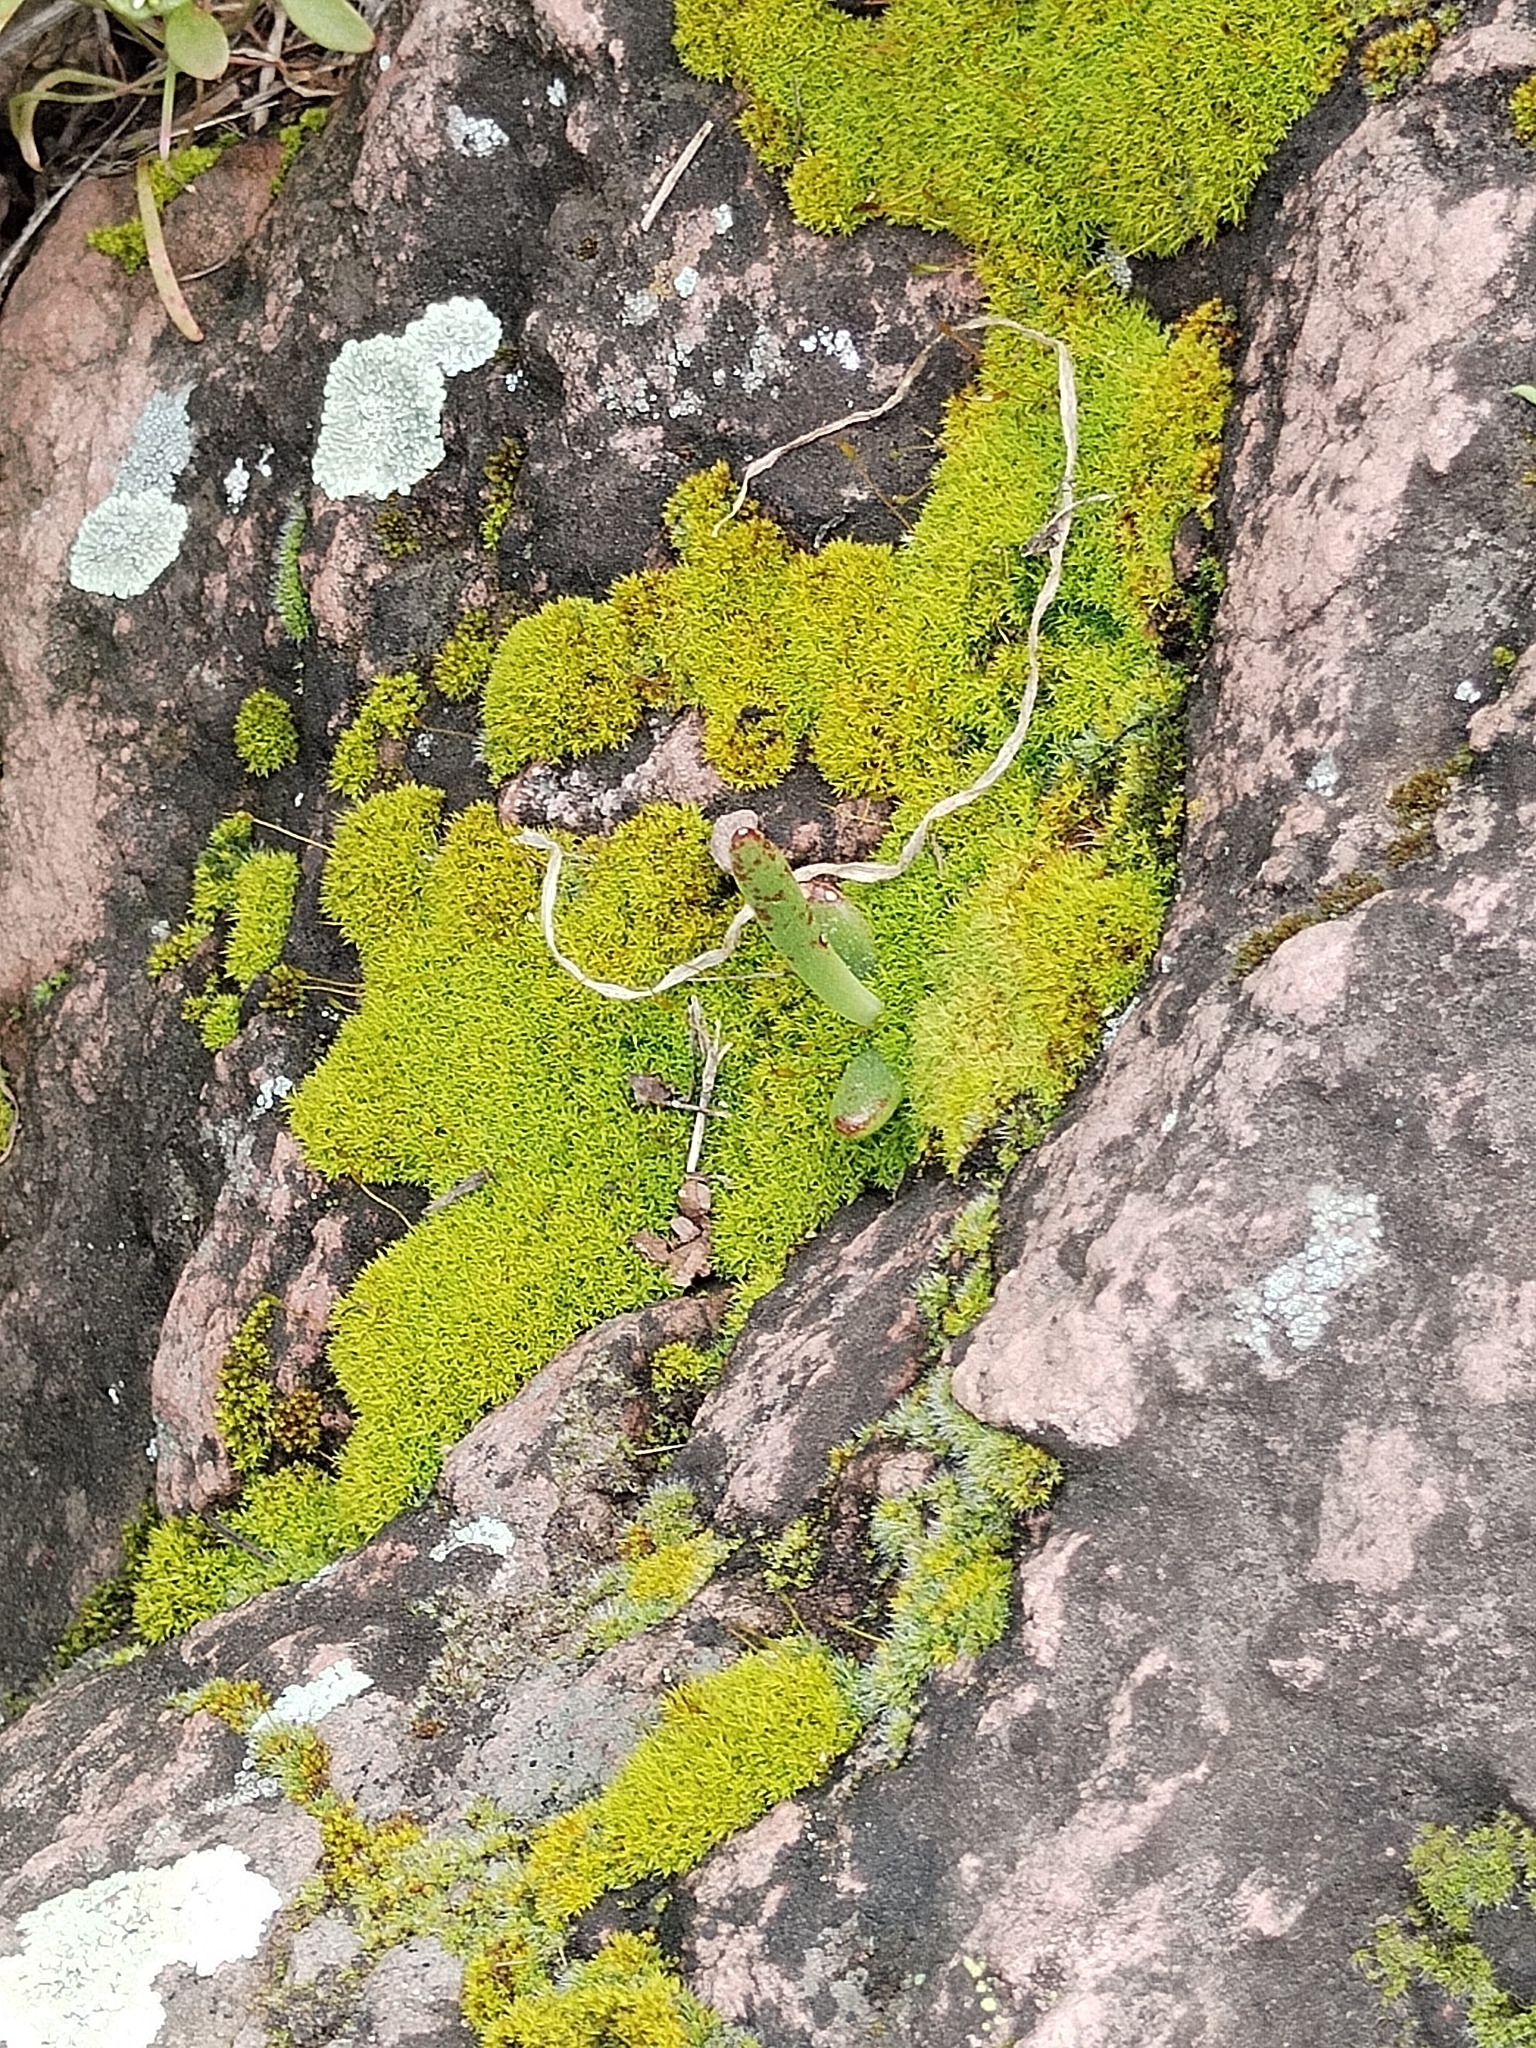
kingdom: Plantae
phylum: Tracheophyta
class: Magnoliopsida
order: Saxifragales
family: Crassulaceae
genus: Dudleya
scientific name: Dudleya edulis
